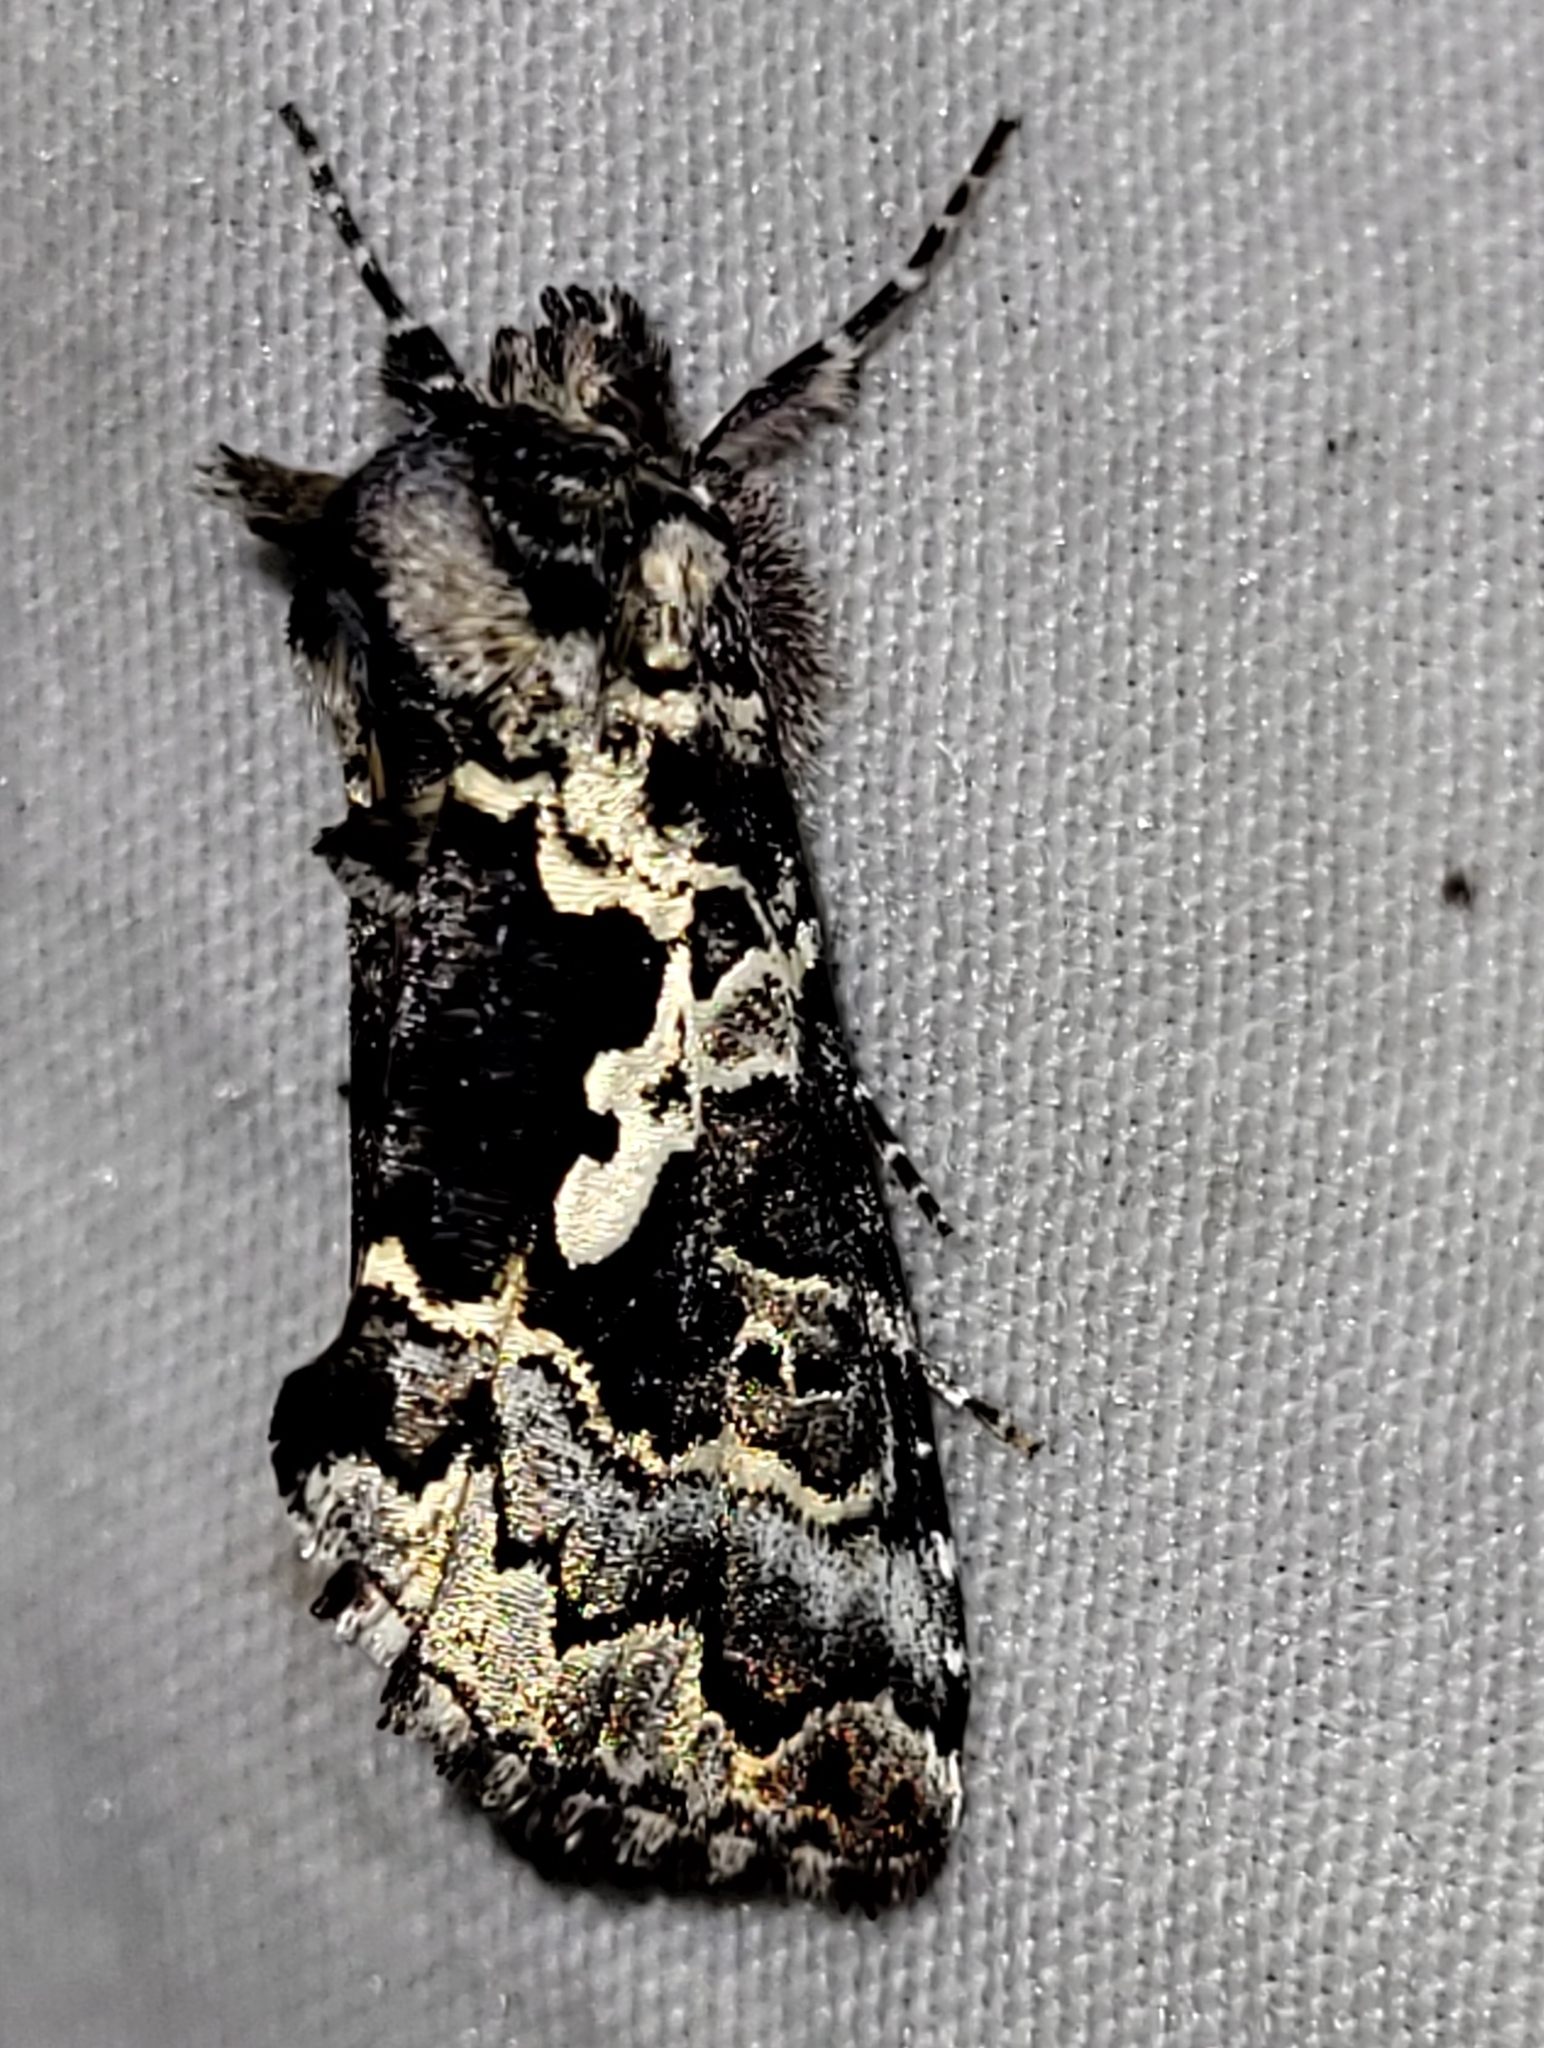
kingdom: Animalia
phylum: Arthropoda
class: Insecta
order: Lepidoptera
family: Noctuidae
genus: Syngrapha
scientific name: Syngrapha rectangula
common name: Angulated cutworm
